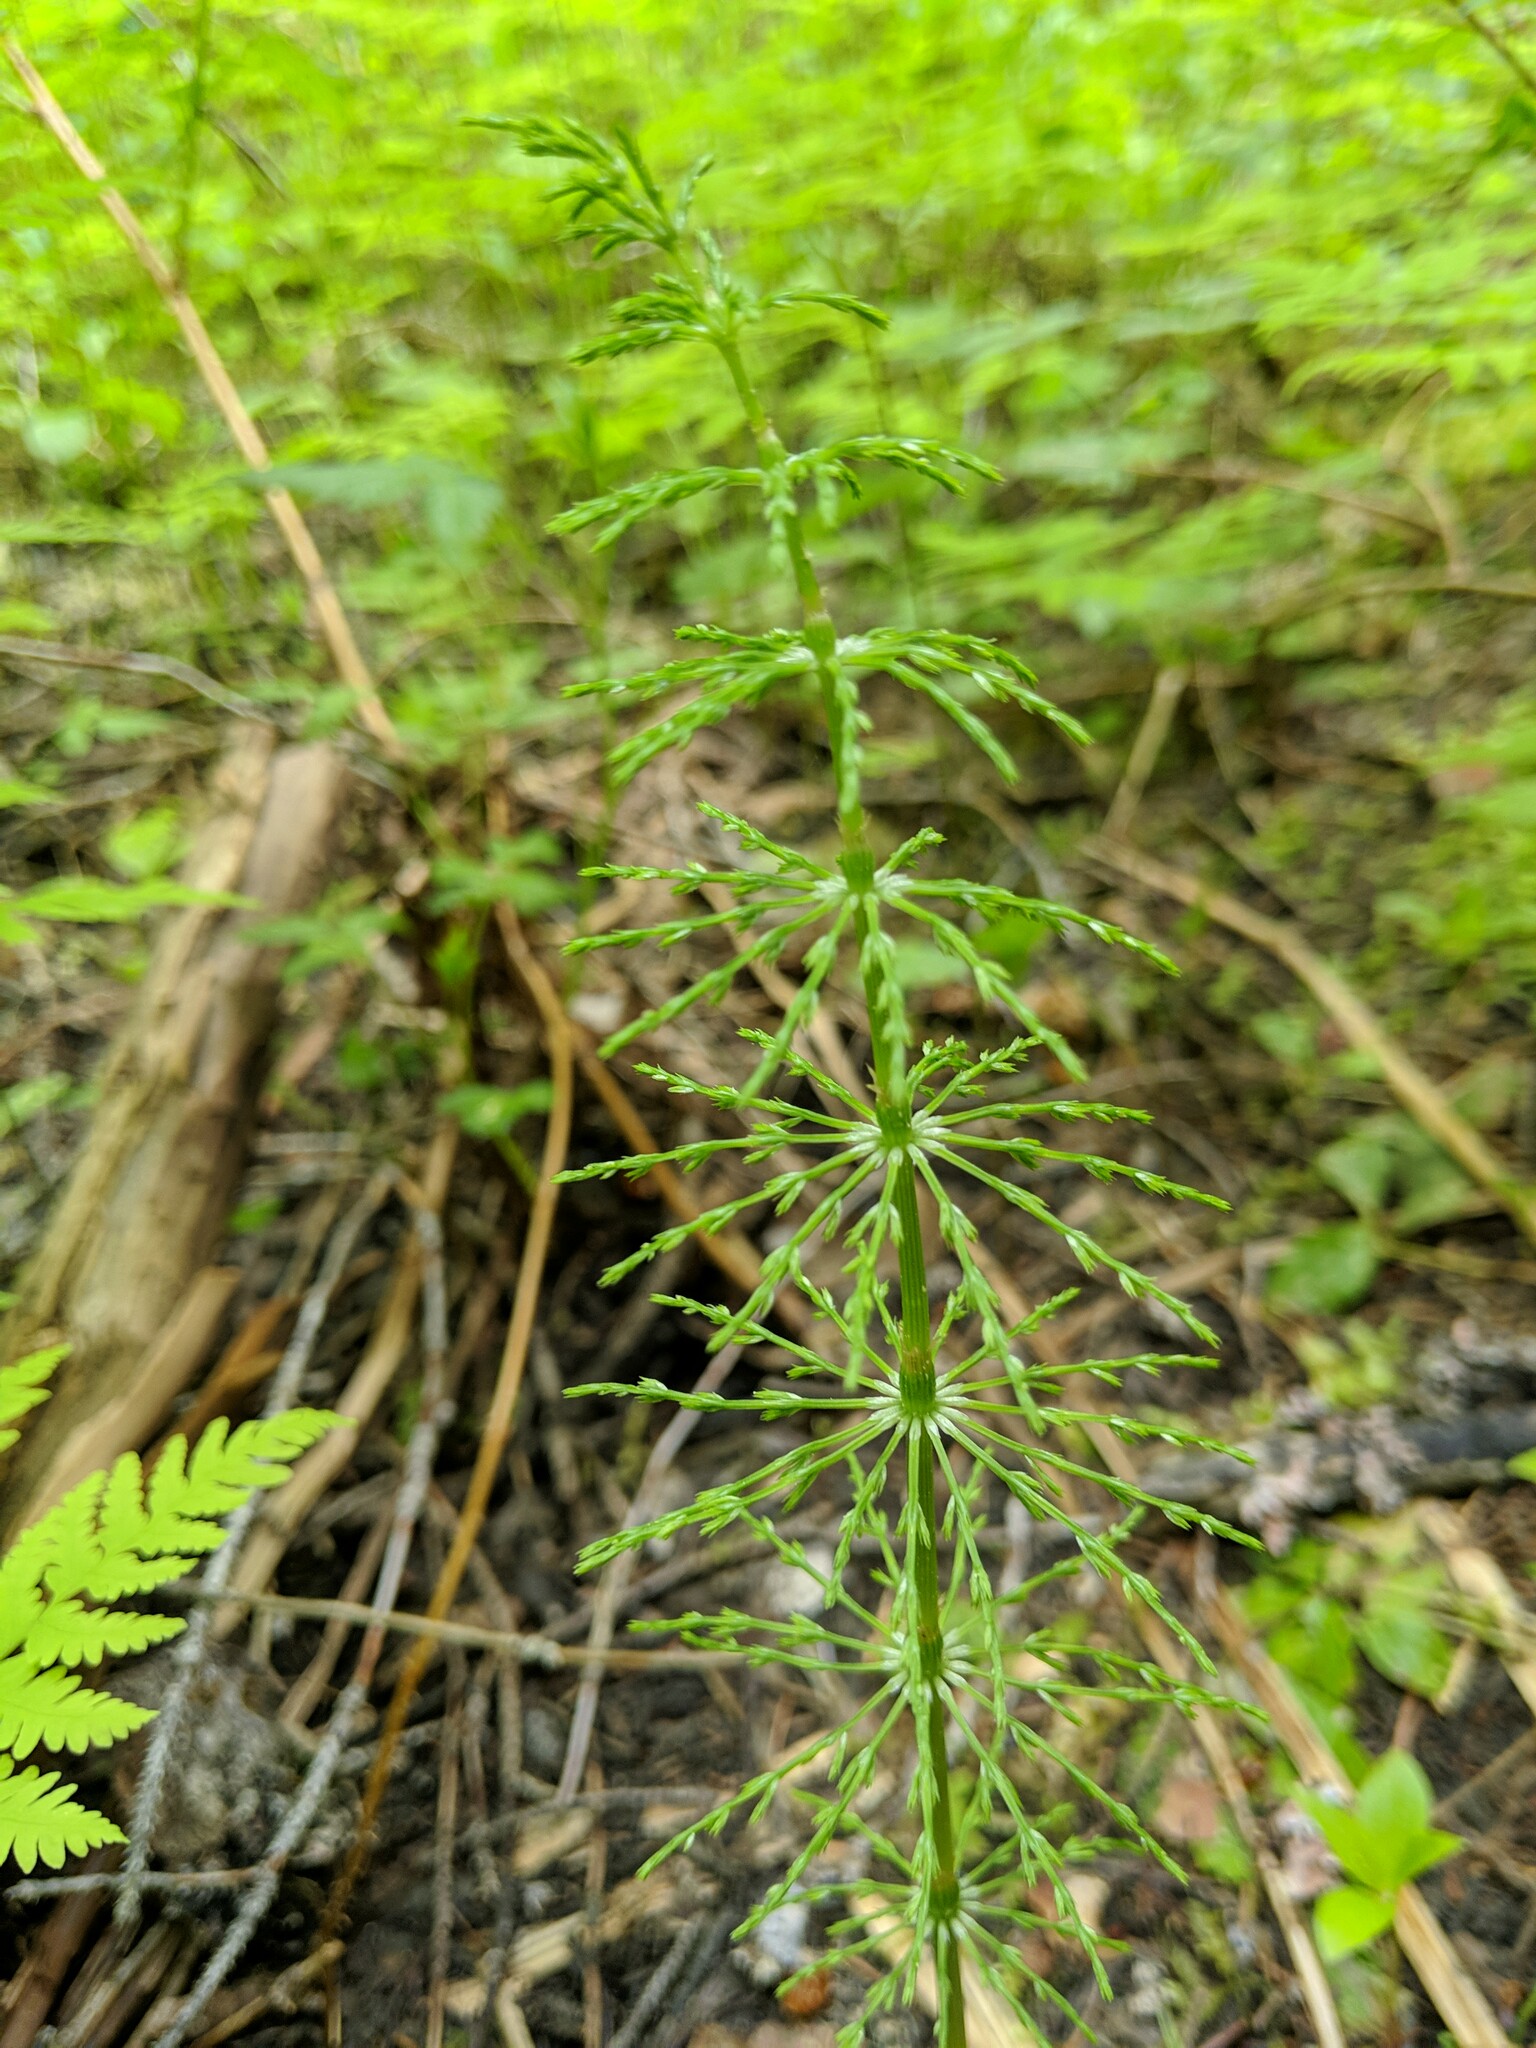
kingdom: Plantae
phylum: Tracheophyta
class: Polypodiopsida
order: Equisetales
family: Equisetaceae
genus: Equisetum
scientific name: Equisetum sylvaticum
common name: Wood horsetail
